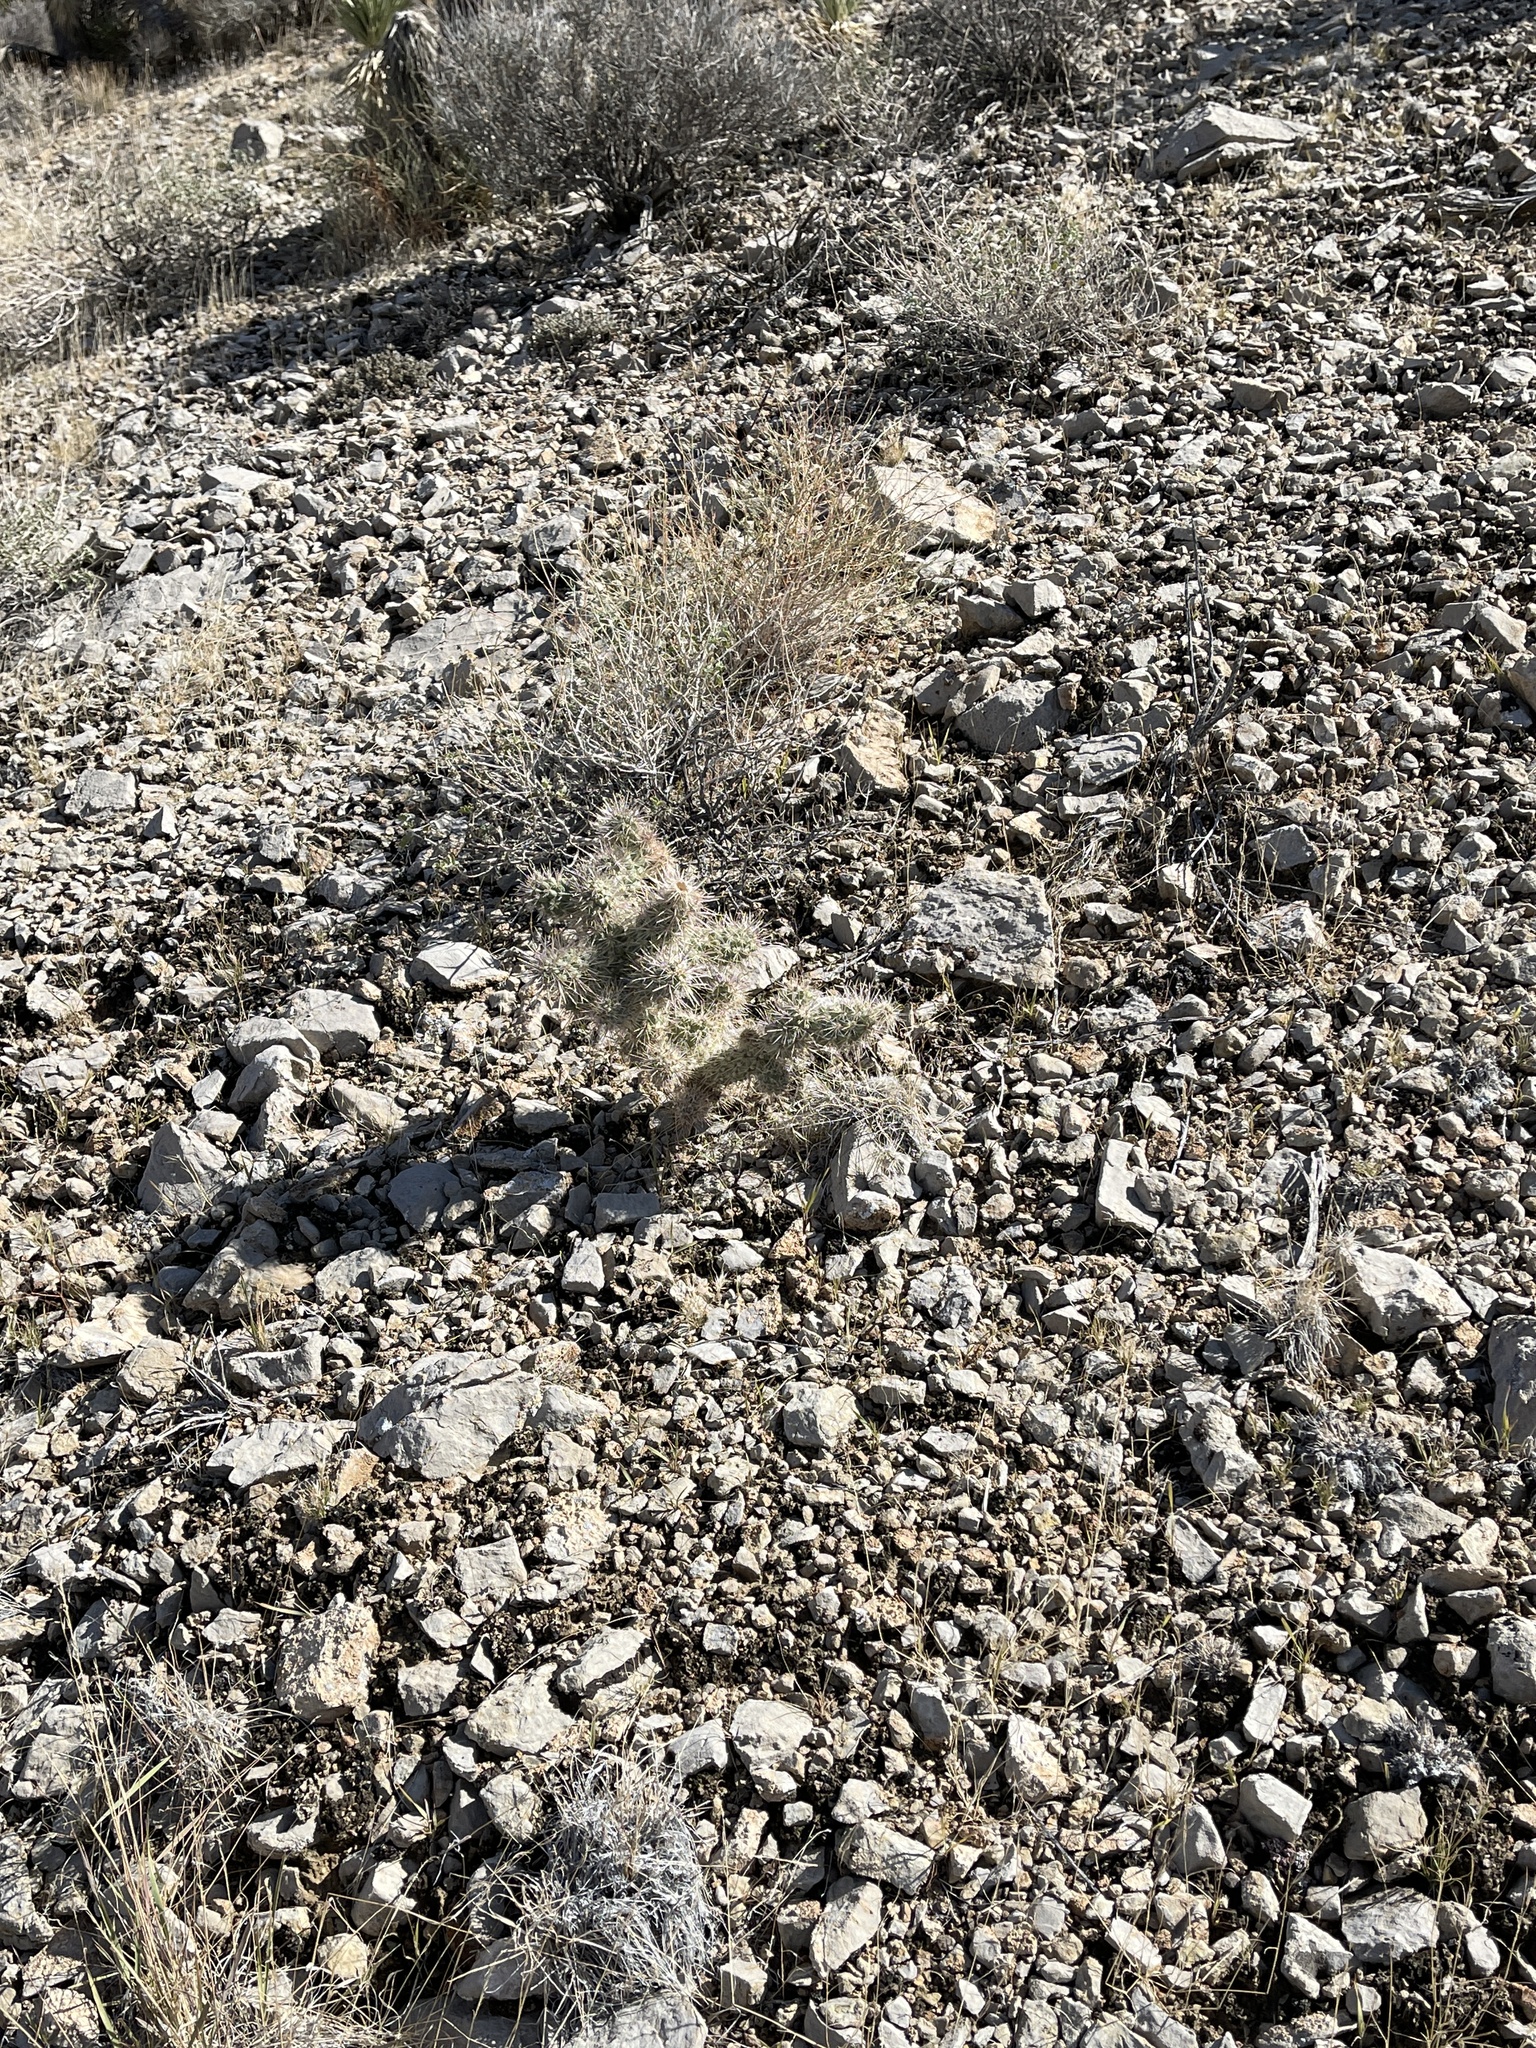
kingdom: Plantae
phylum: Tracheophyta
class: Magnoliopsida
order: Caryophyllales
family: Cactaceae
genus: Cylindropuntia
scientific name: Cylindropuntia echinocarpa
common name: Ground cholla
